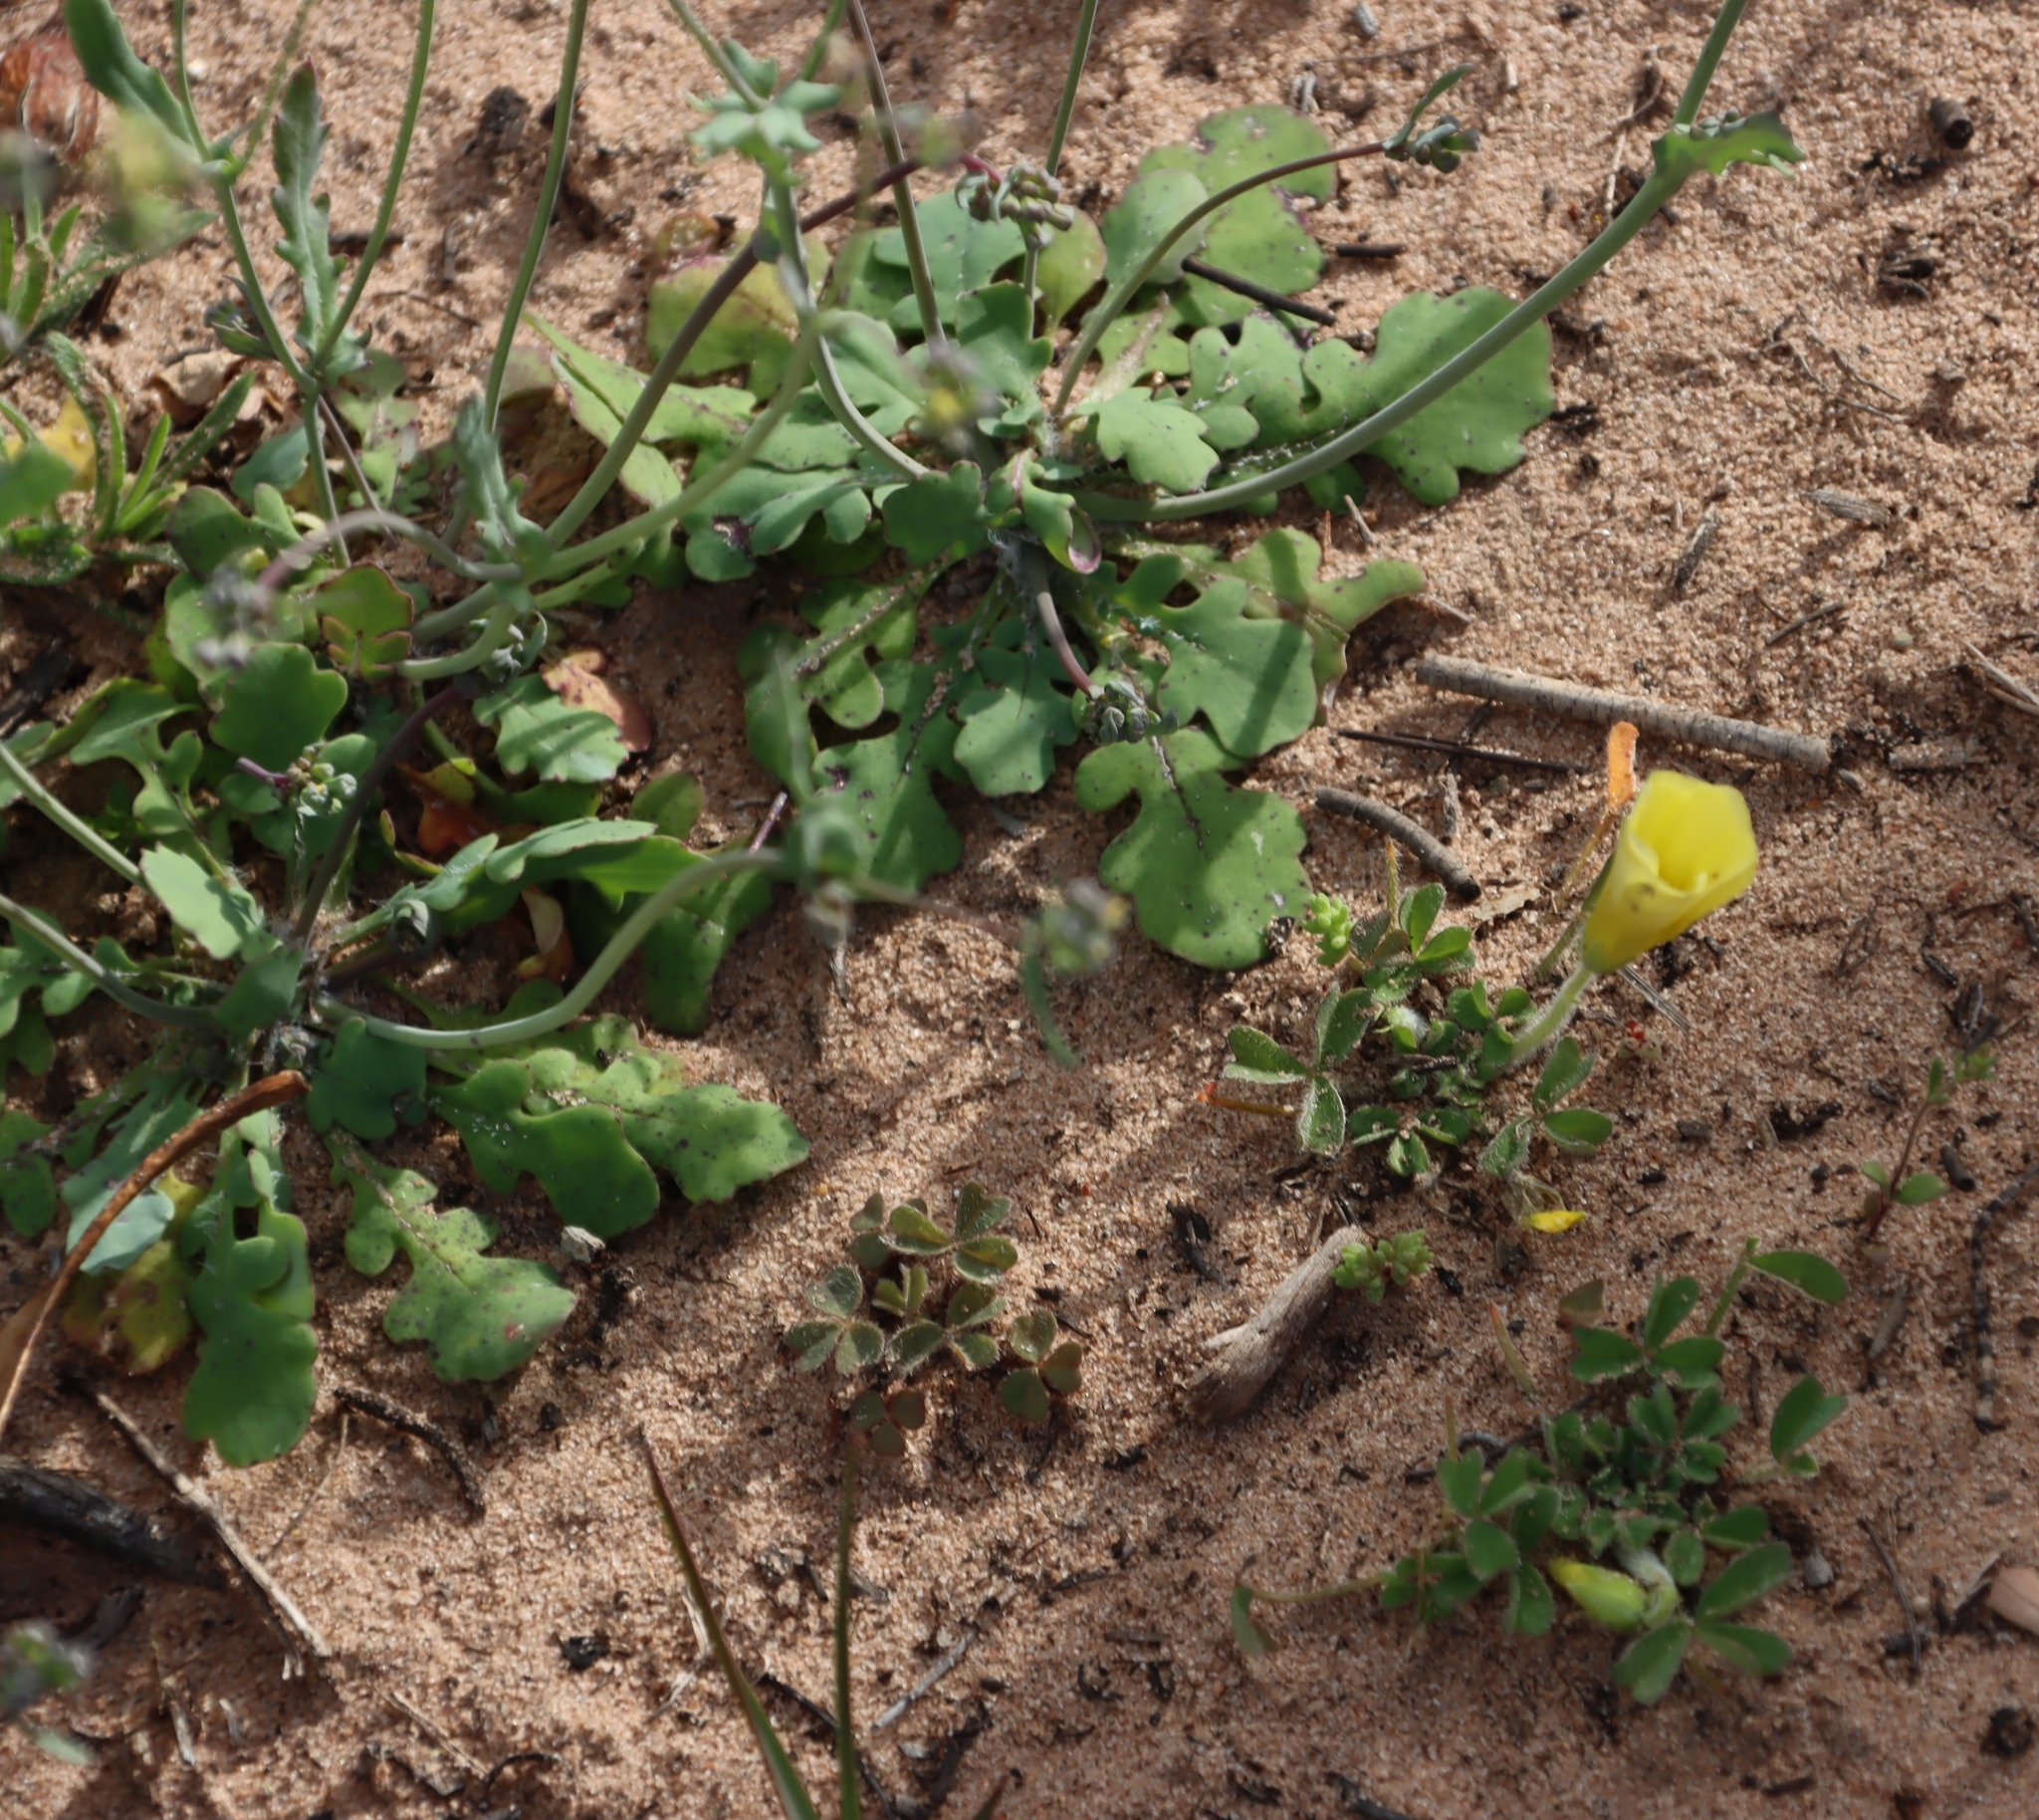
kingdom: Plantae
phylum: Tracheophyta
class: Magnoliopsida
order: Oxalidales
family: Oxalidaceae
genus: Oxalis
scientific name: Oxalis obtusa
